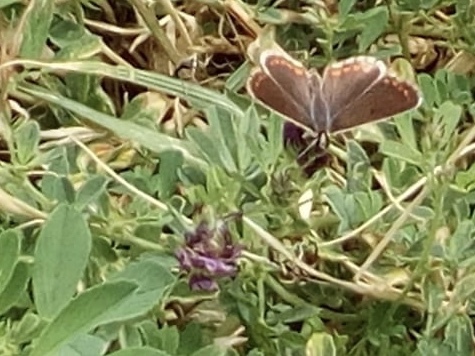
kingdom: Animalia
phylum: Arthropoda
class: Insecta
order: Lepidoptera
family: Lycaenidae
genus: Aricia
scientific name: Aricia cramera
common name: Eschscholtz´s brown  argus
